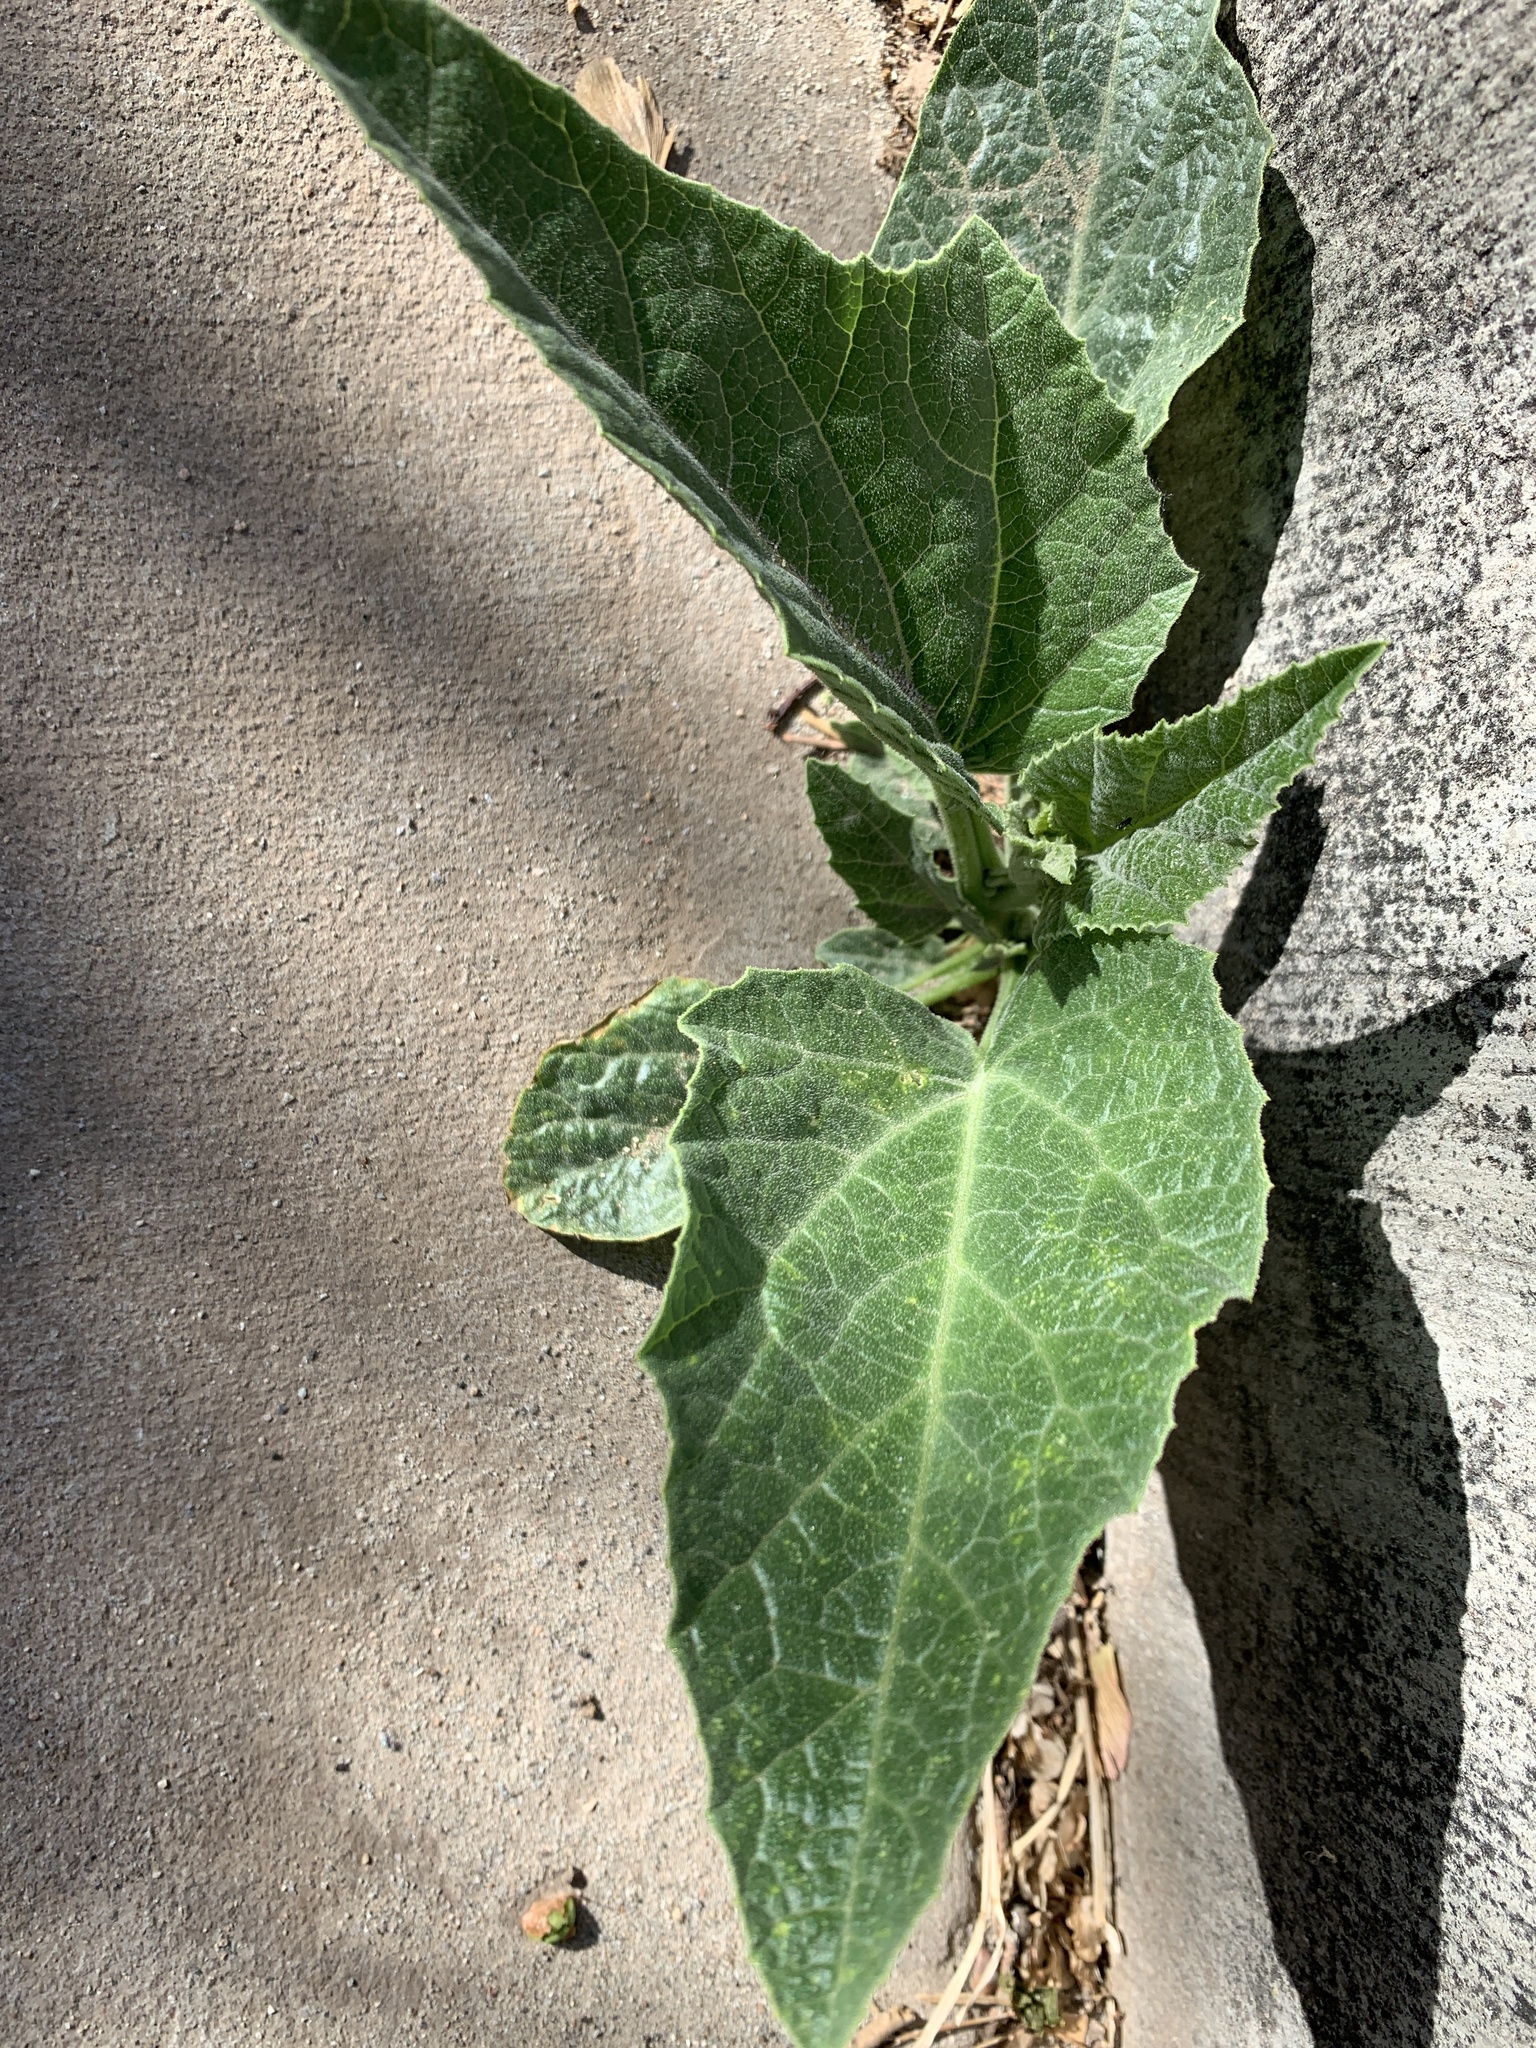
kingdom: Plantae
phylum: Tracheophyta
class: Magnoliopsida
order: Cucurbitales
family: Cucurbitaceae
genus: Cucurbita
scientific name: Cucurbita foetidissima
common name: Buffalo gourd
